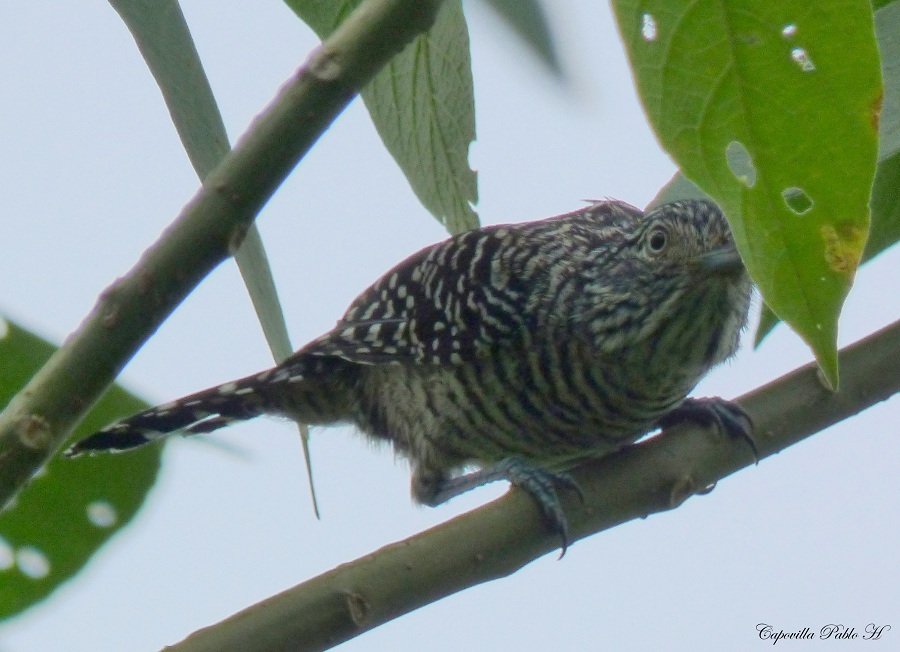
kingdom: Animalia
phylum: Chordata
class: Aves
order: Passeriformes
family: Thamnophilidae
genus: Thamnophilus
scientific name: Thamnophilus doliatus
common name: Barred antshrike
